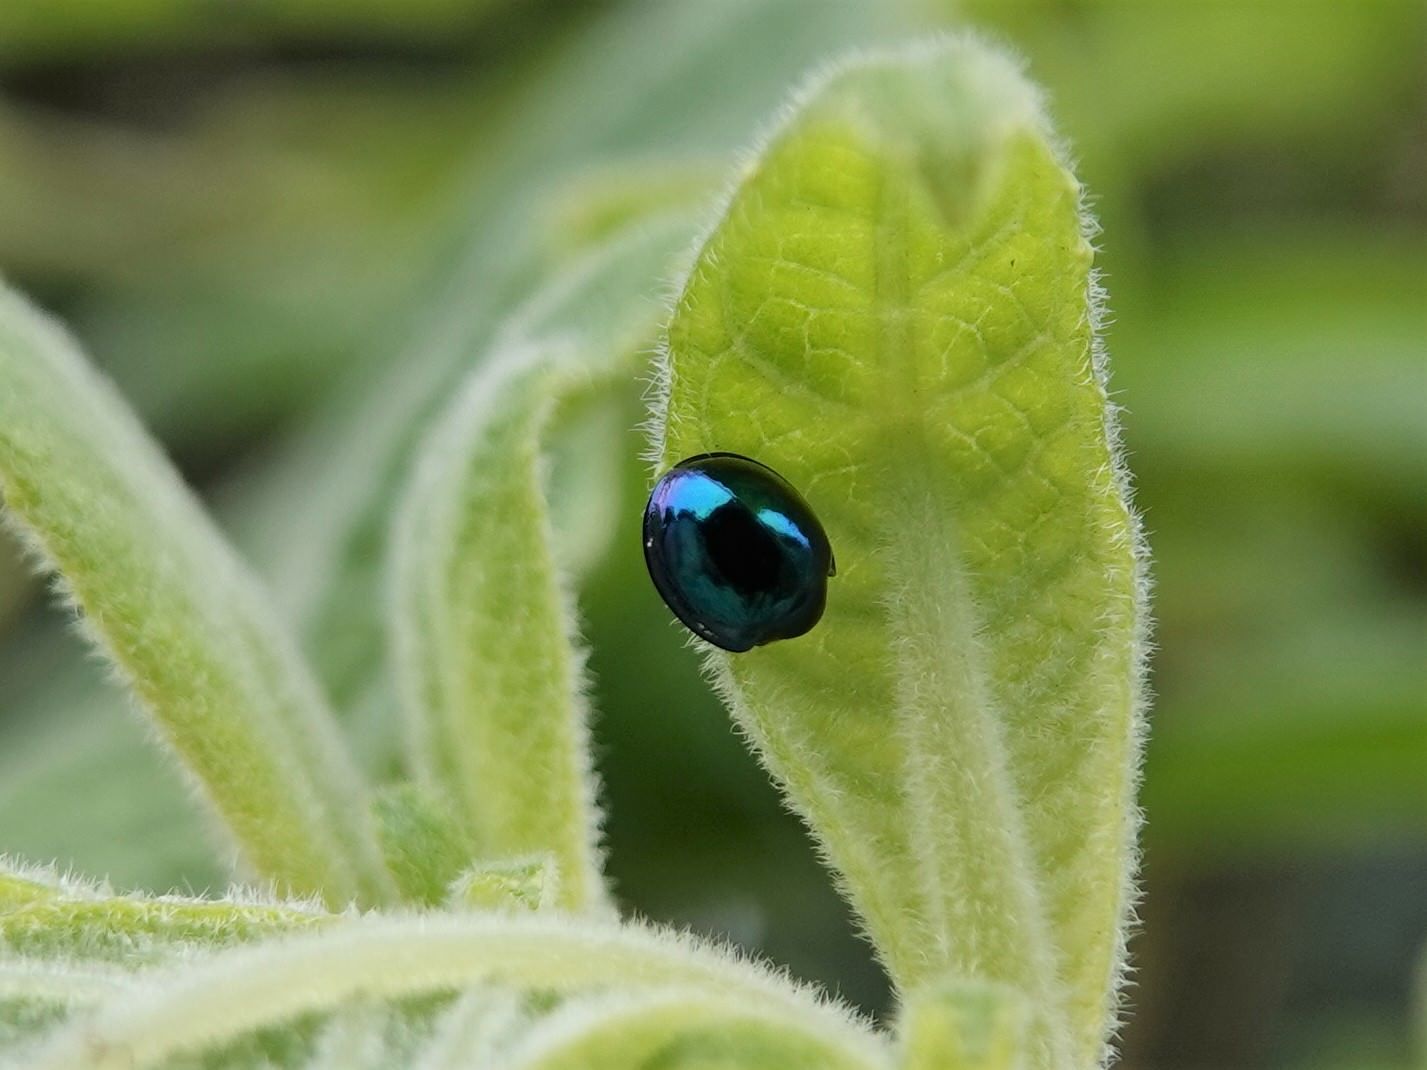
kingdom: Animalia
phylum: Arthropoda
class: Insecta
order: Coleoptera
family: Coccinellidae
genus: Halmus
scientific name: Halmus chalybeus
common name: Steel blue ladybird beetle
